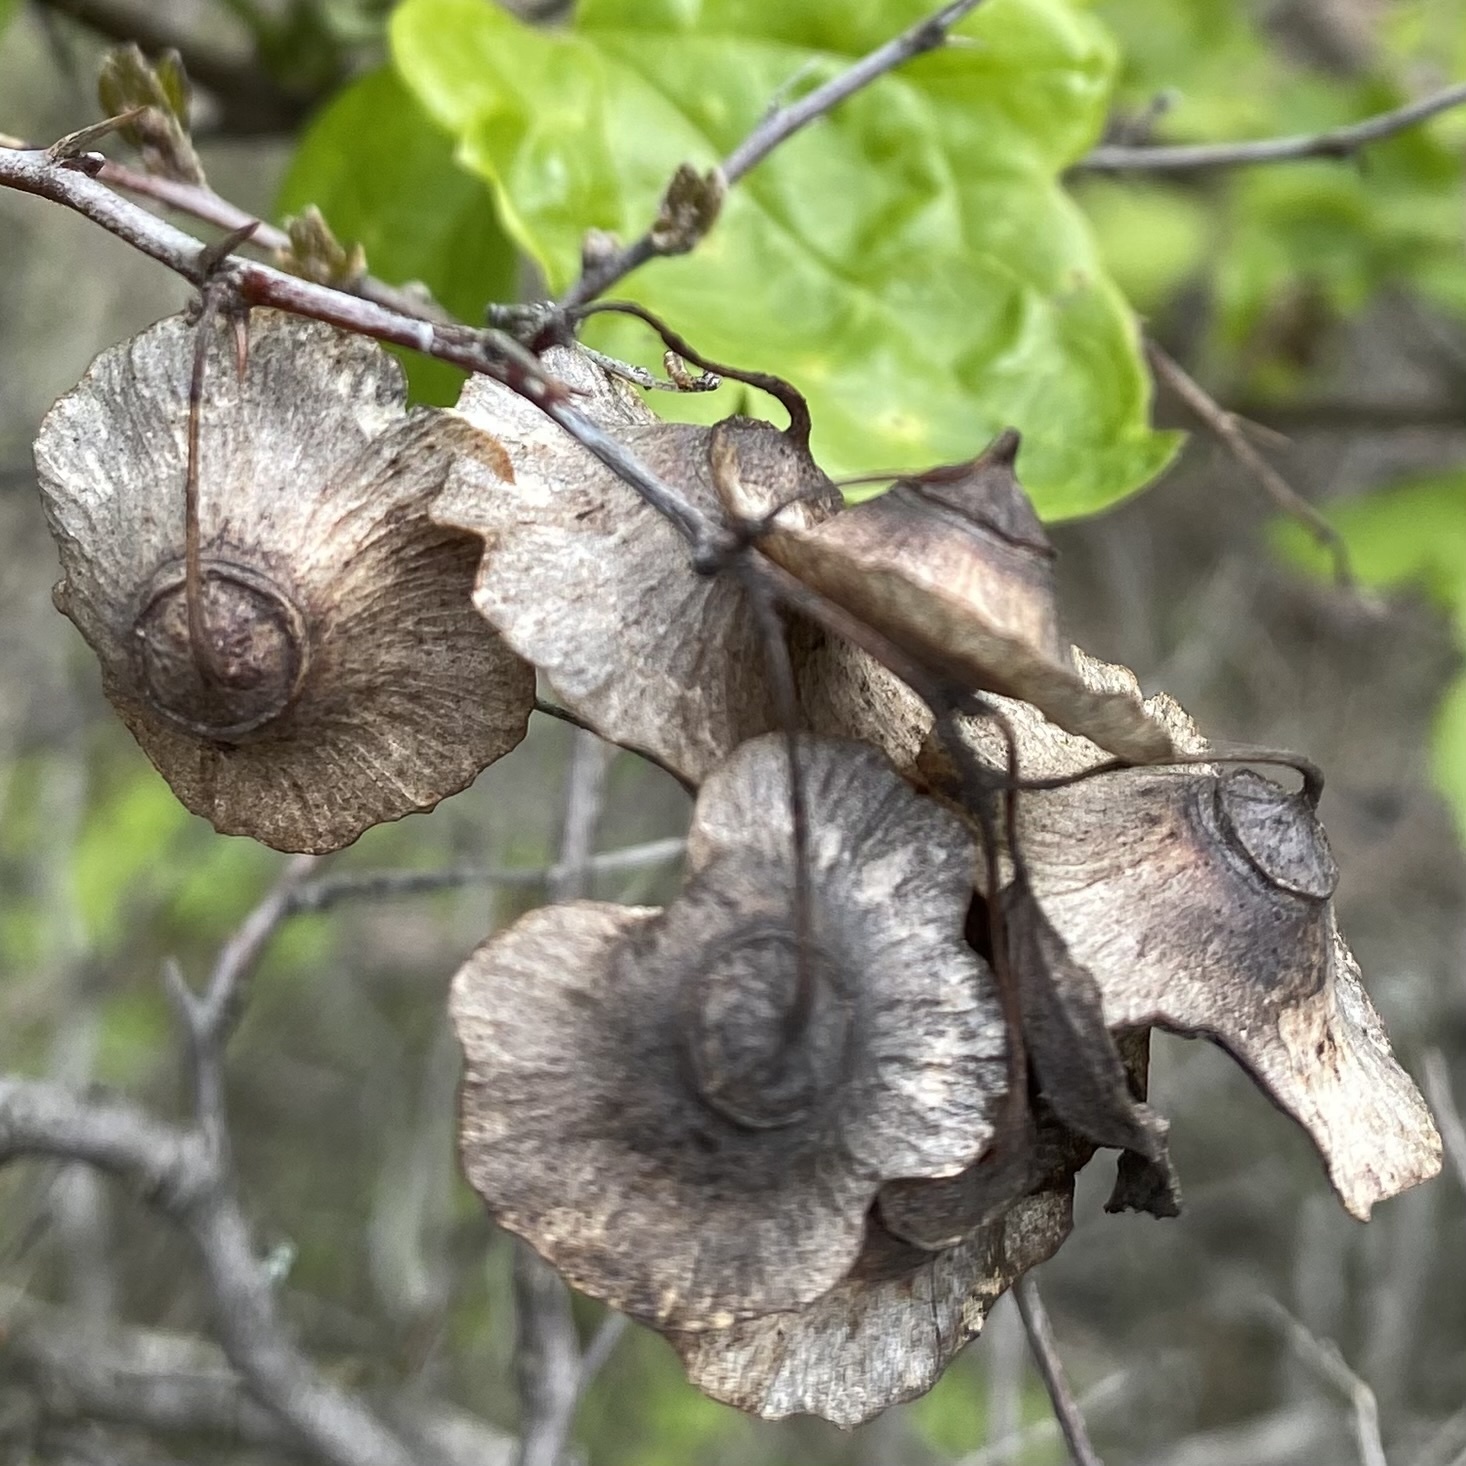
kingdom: Plantae
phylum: Tracheophyta
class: Magnoliopsida
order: Rosales
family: Rhamnaceae
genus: Paliurus
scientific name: Paliurus spina-christi
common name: Jeruselem thorn
